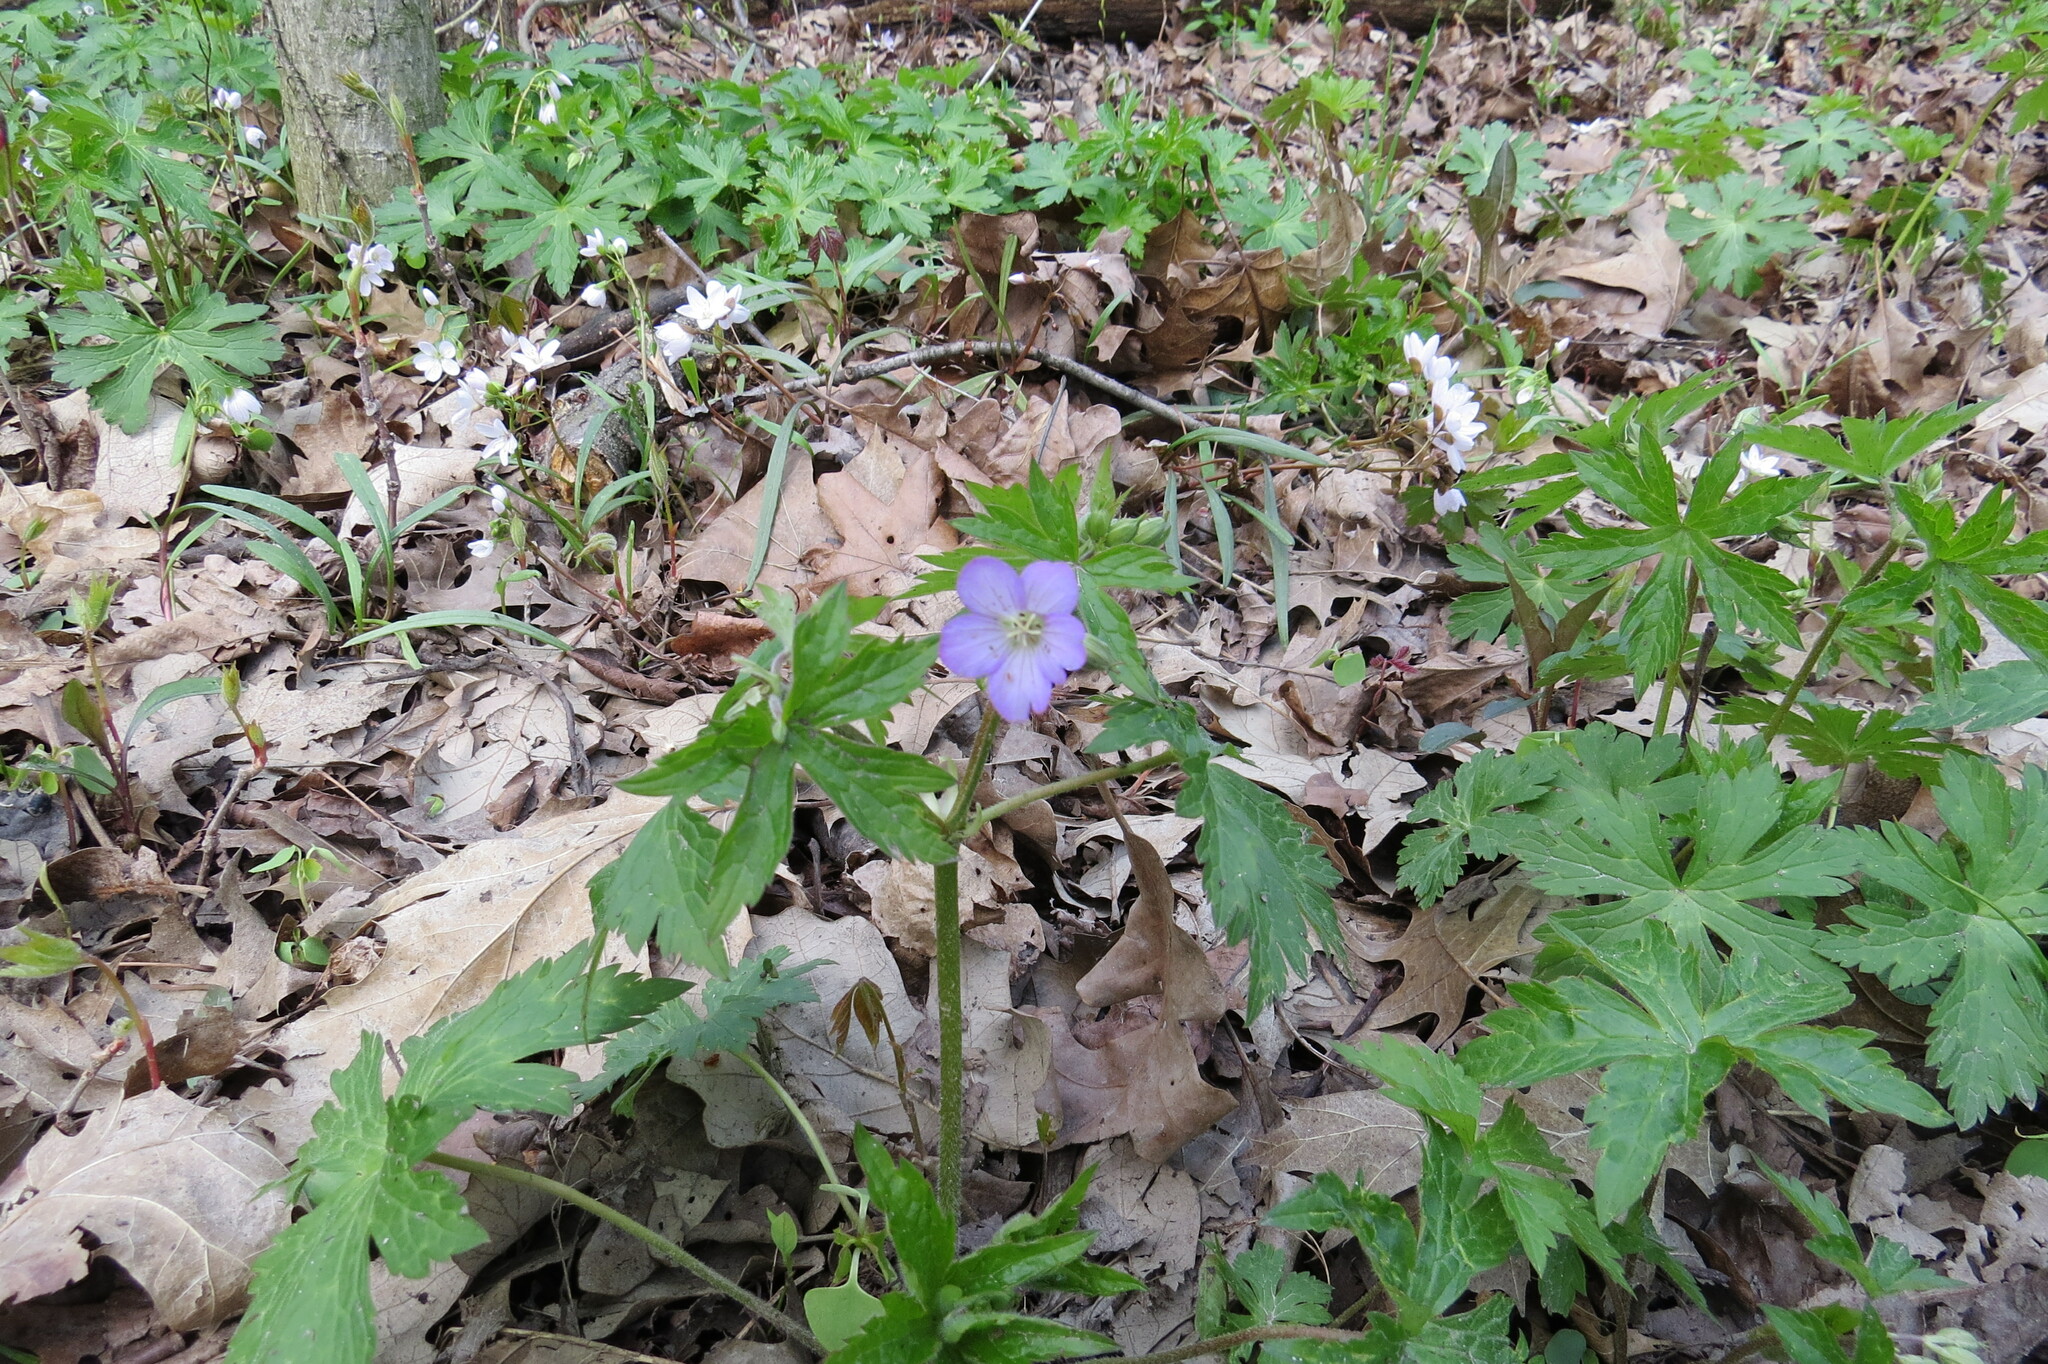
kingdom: Plantae
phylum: Tracheophyta
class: Magnoliopsida
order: Geraniales
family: Geraniaceae
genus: Geranium
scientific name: Geranium maculatum
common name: Spotted geranium
